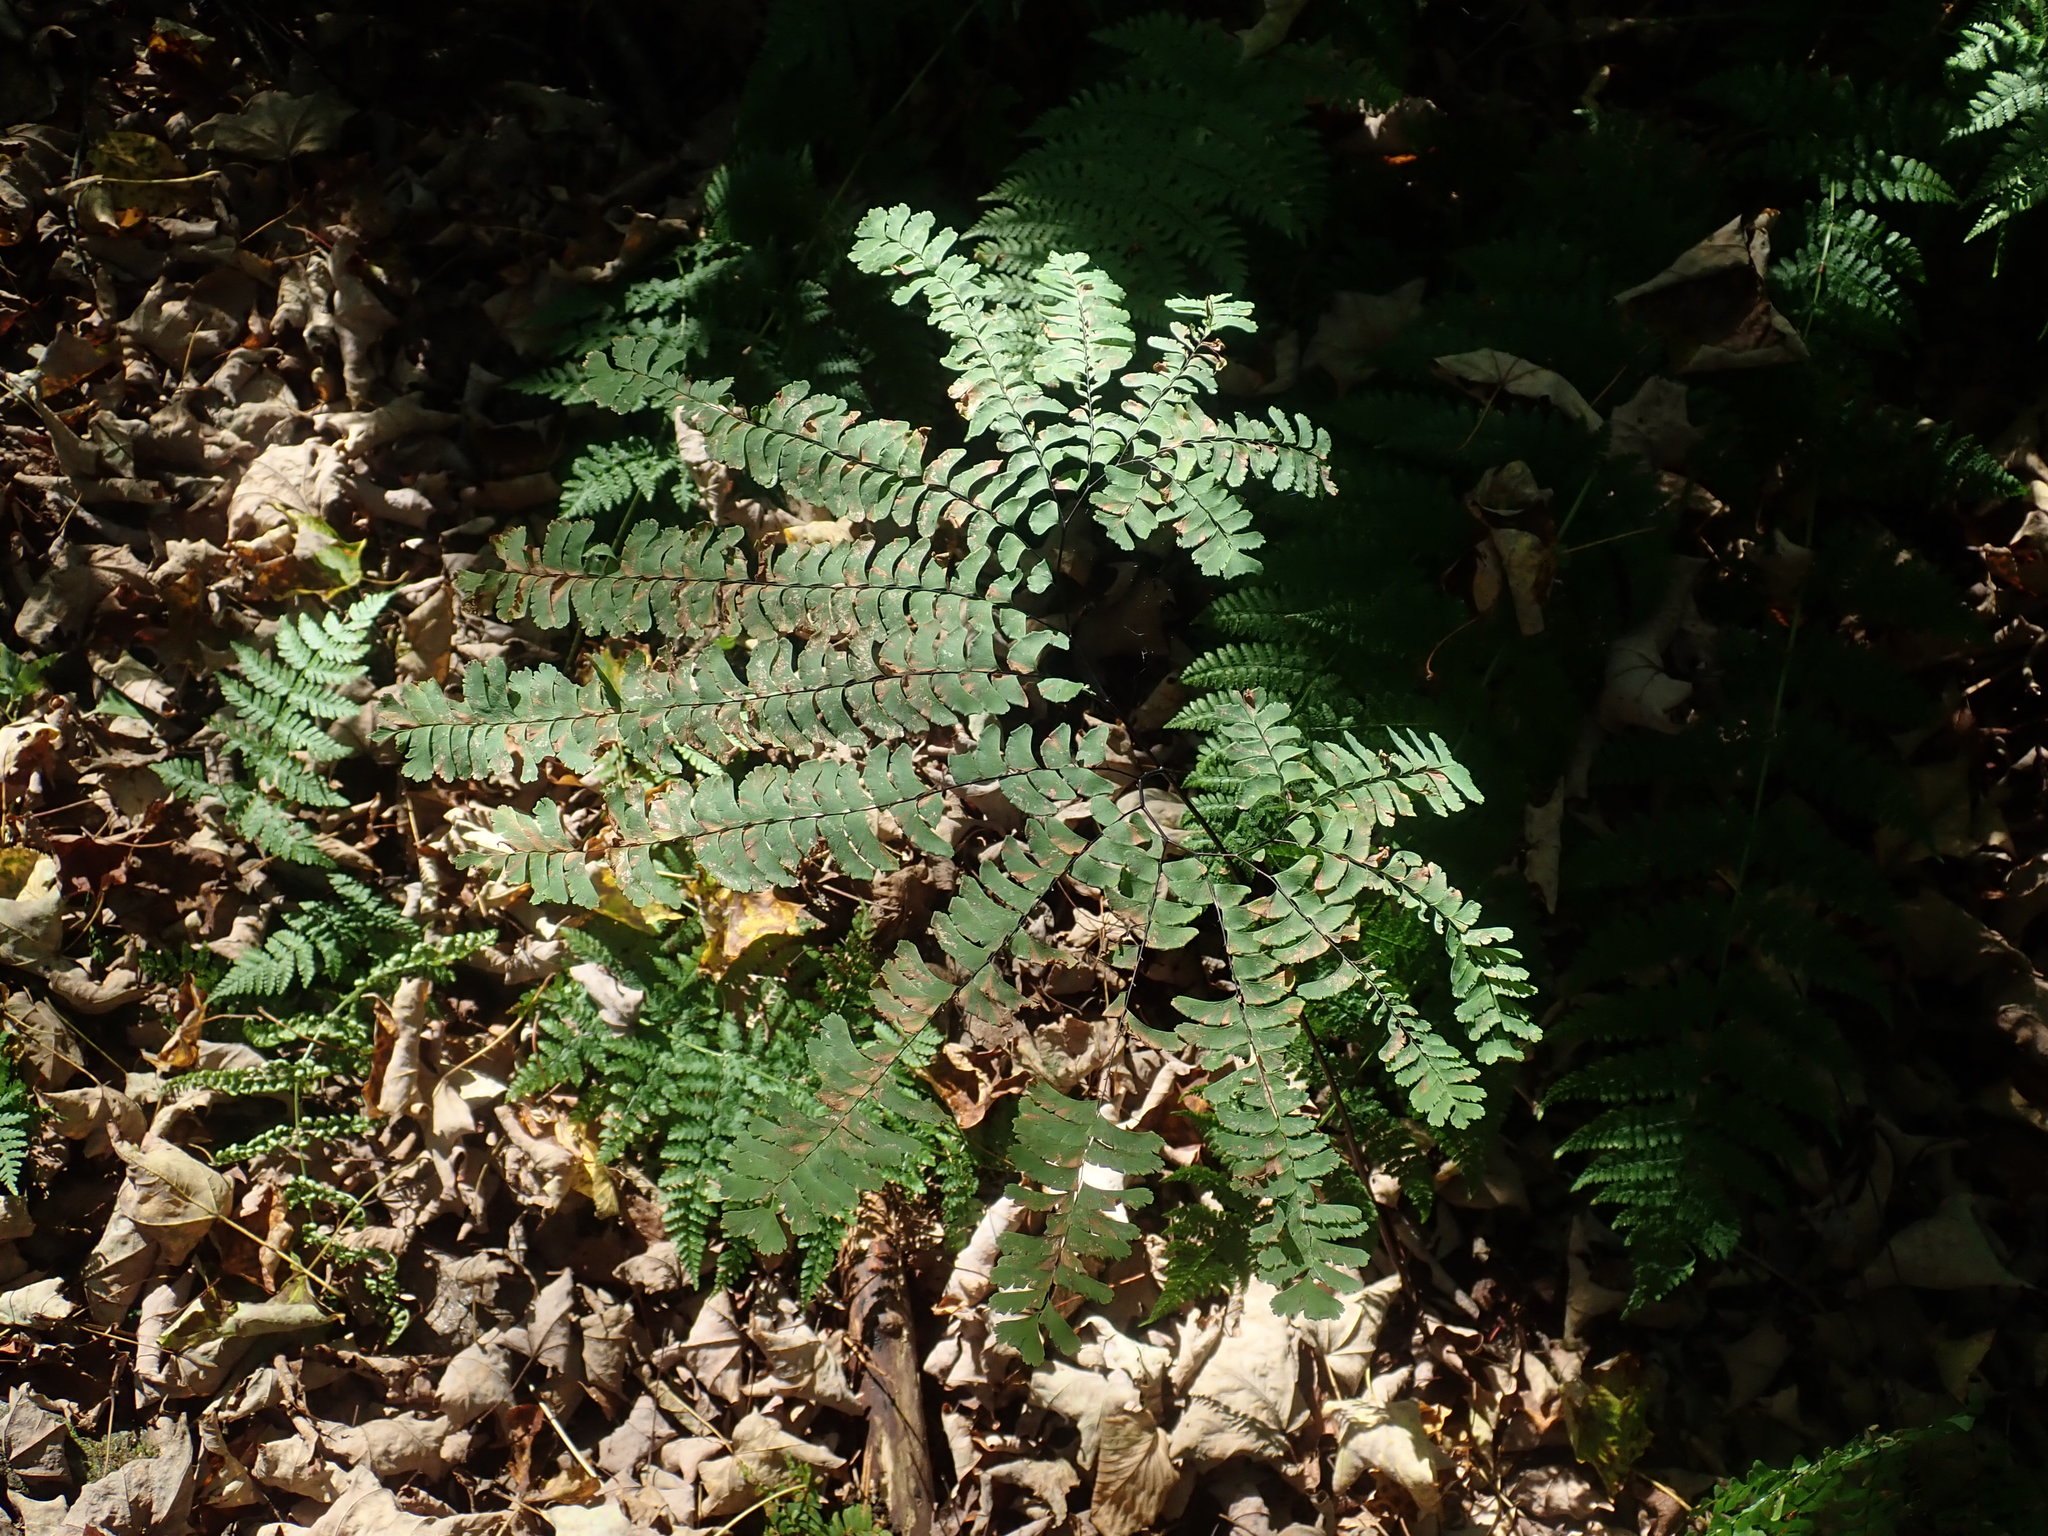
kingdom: Plantae
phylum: Tracheophyta
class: Polypodiopsida
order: Polypodiales
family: Pteridaceae
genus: Adiantum
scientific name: Adiantum pedatum
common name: Five-finger fern
